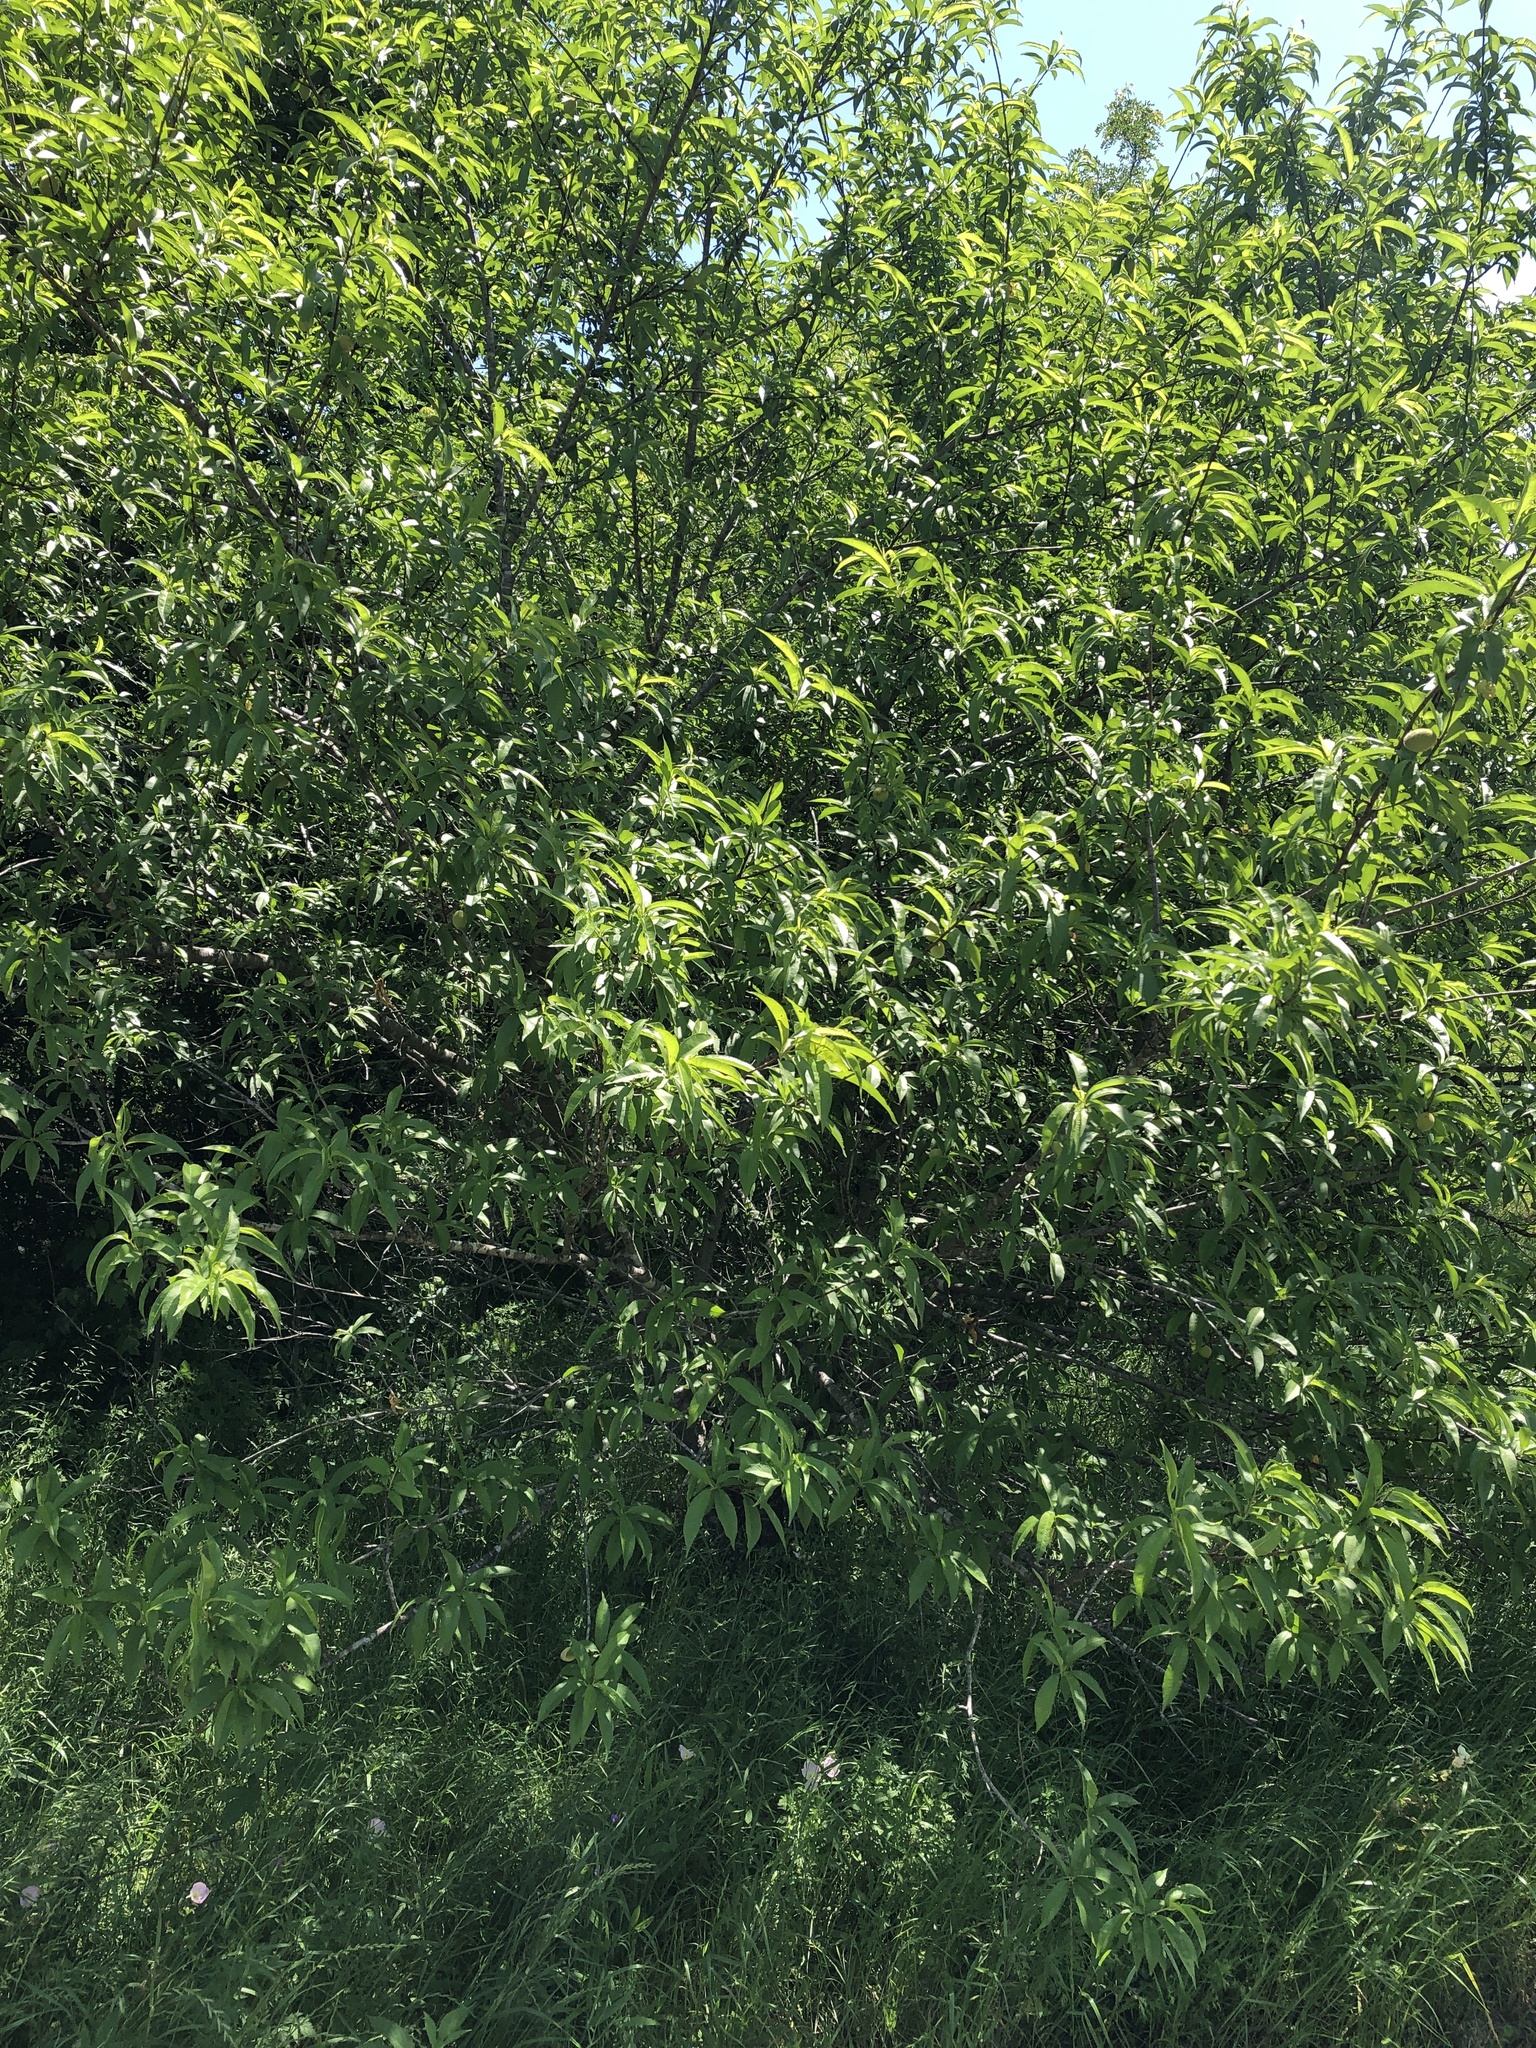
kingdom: Plantae
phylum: Tracheophyta
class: Magnoliopsida
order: Rosales
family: Rosaceae
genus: Prunus
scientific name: Prunus persica
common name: Peach
